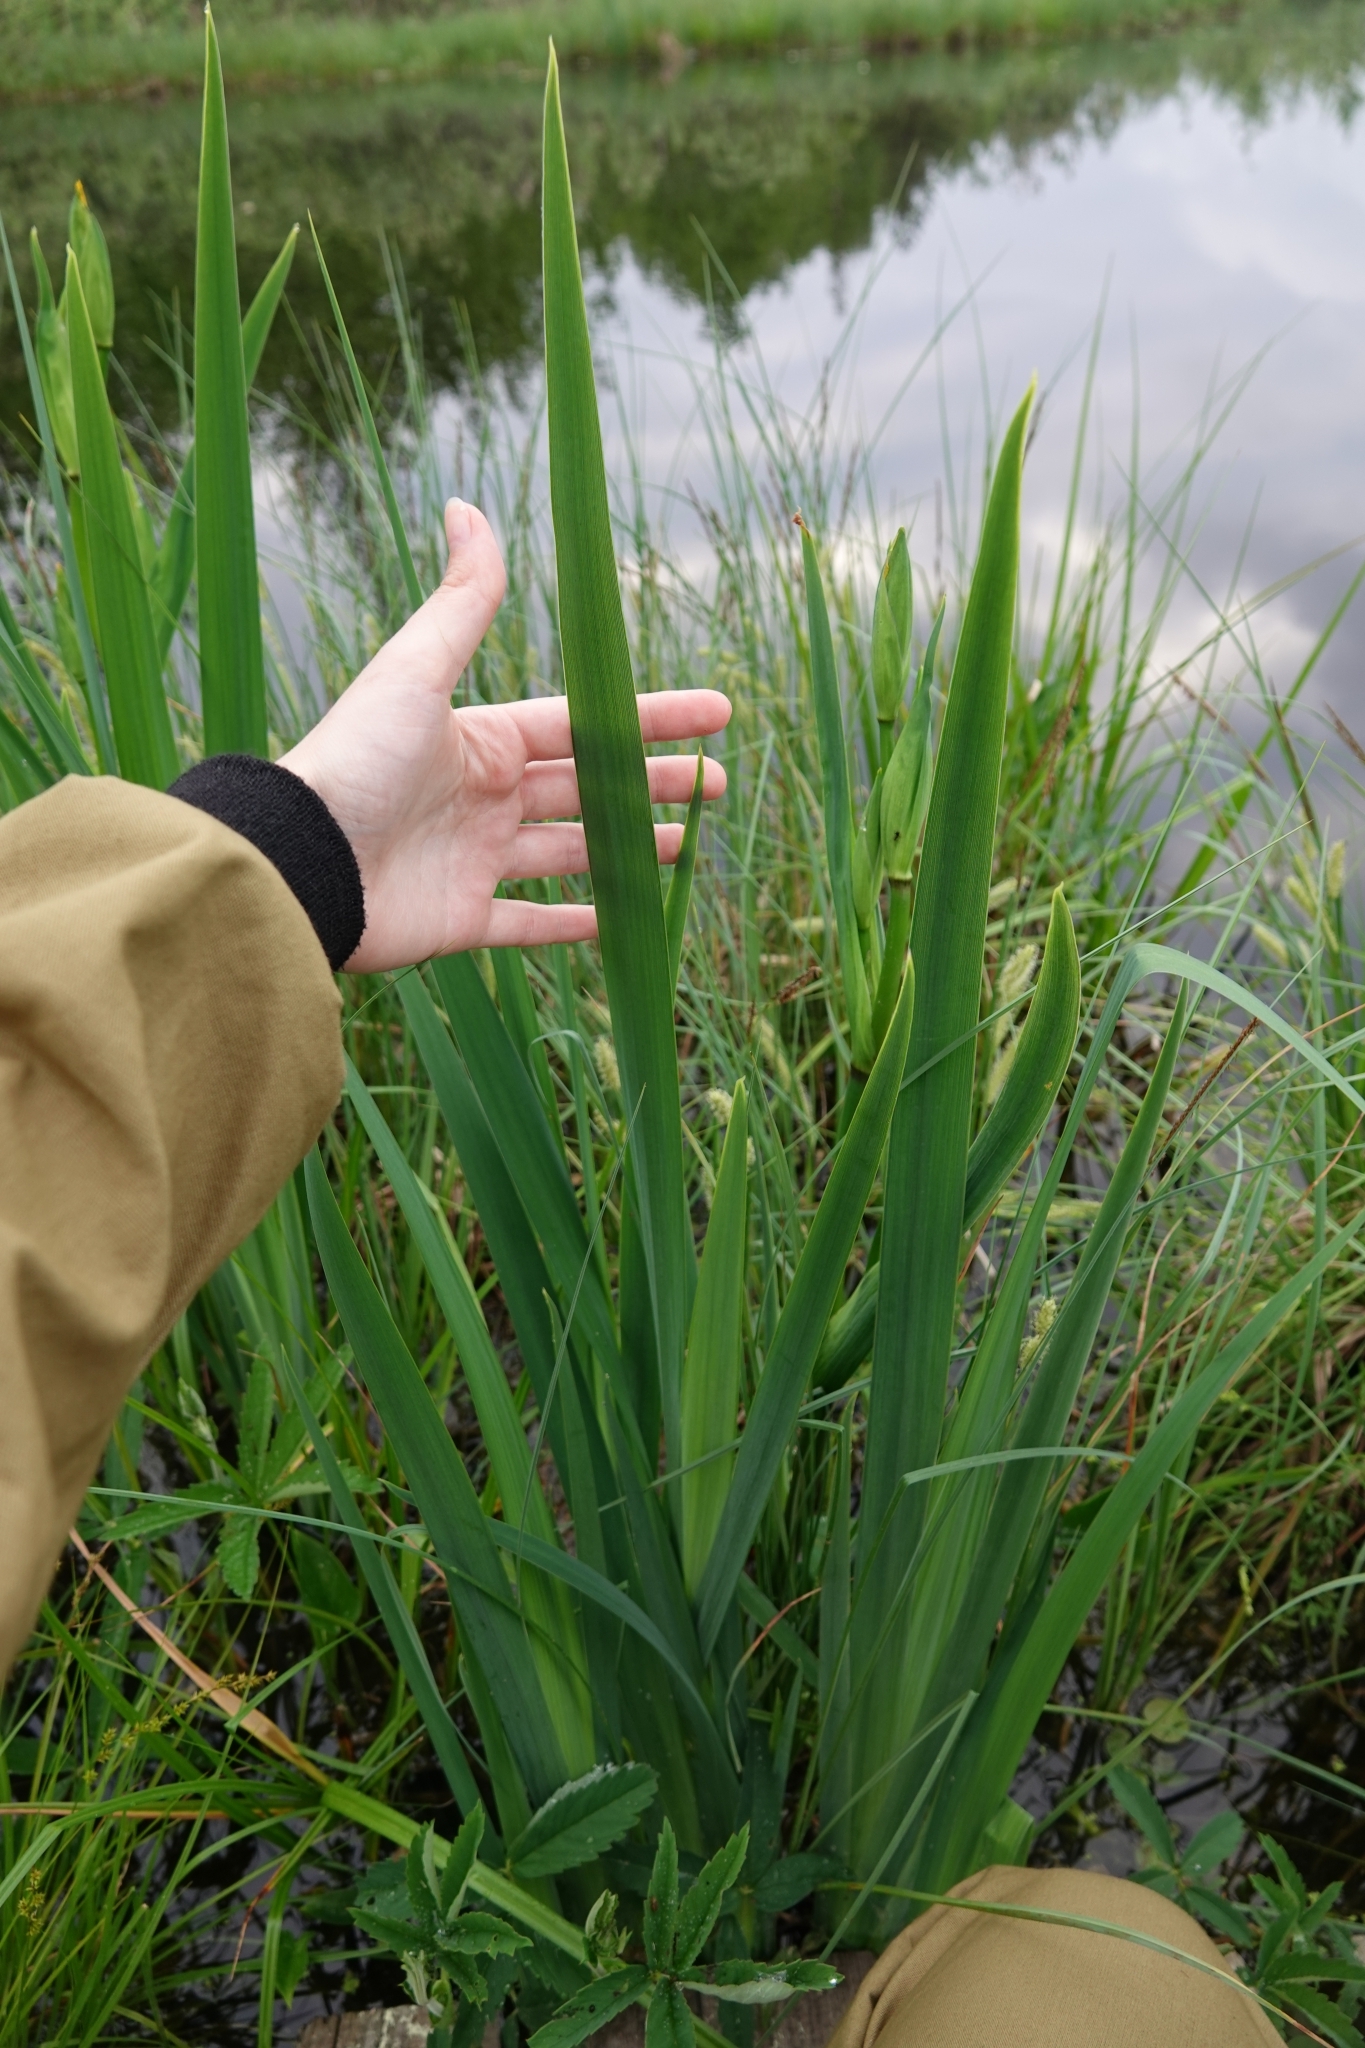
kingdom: Plantae
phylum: Tracheophyta
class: Liliopsida
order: Asparagales
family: Iridaceae
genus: Iris
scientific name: Iris pseudacorus
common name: Yellow flag
